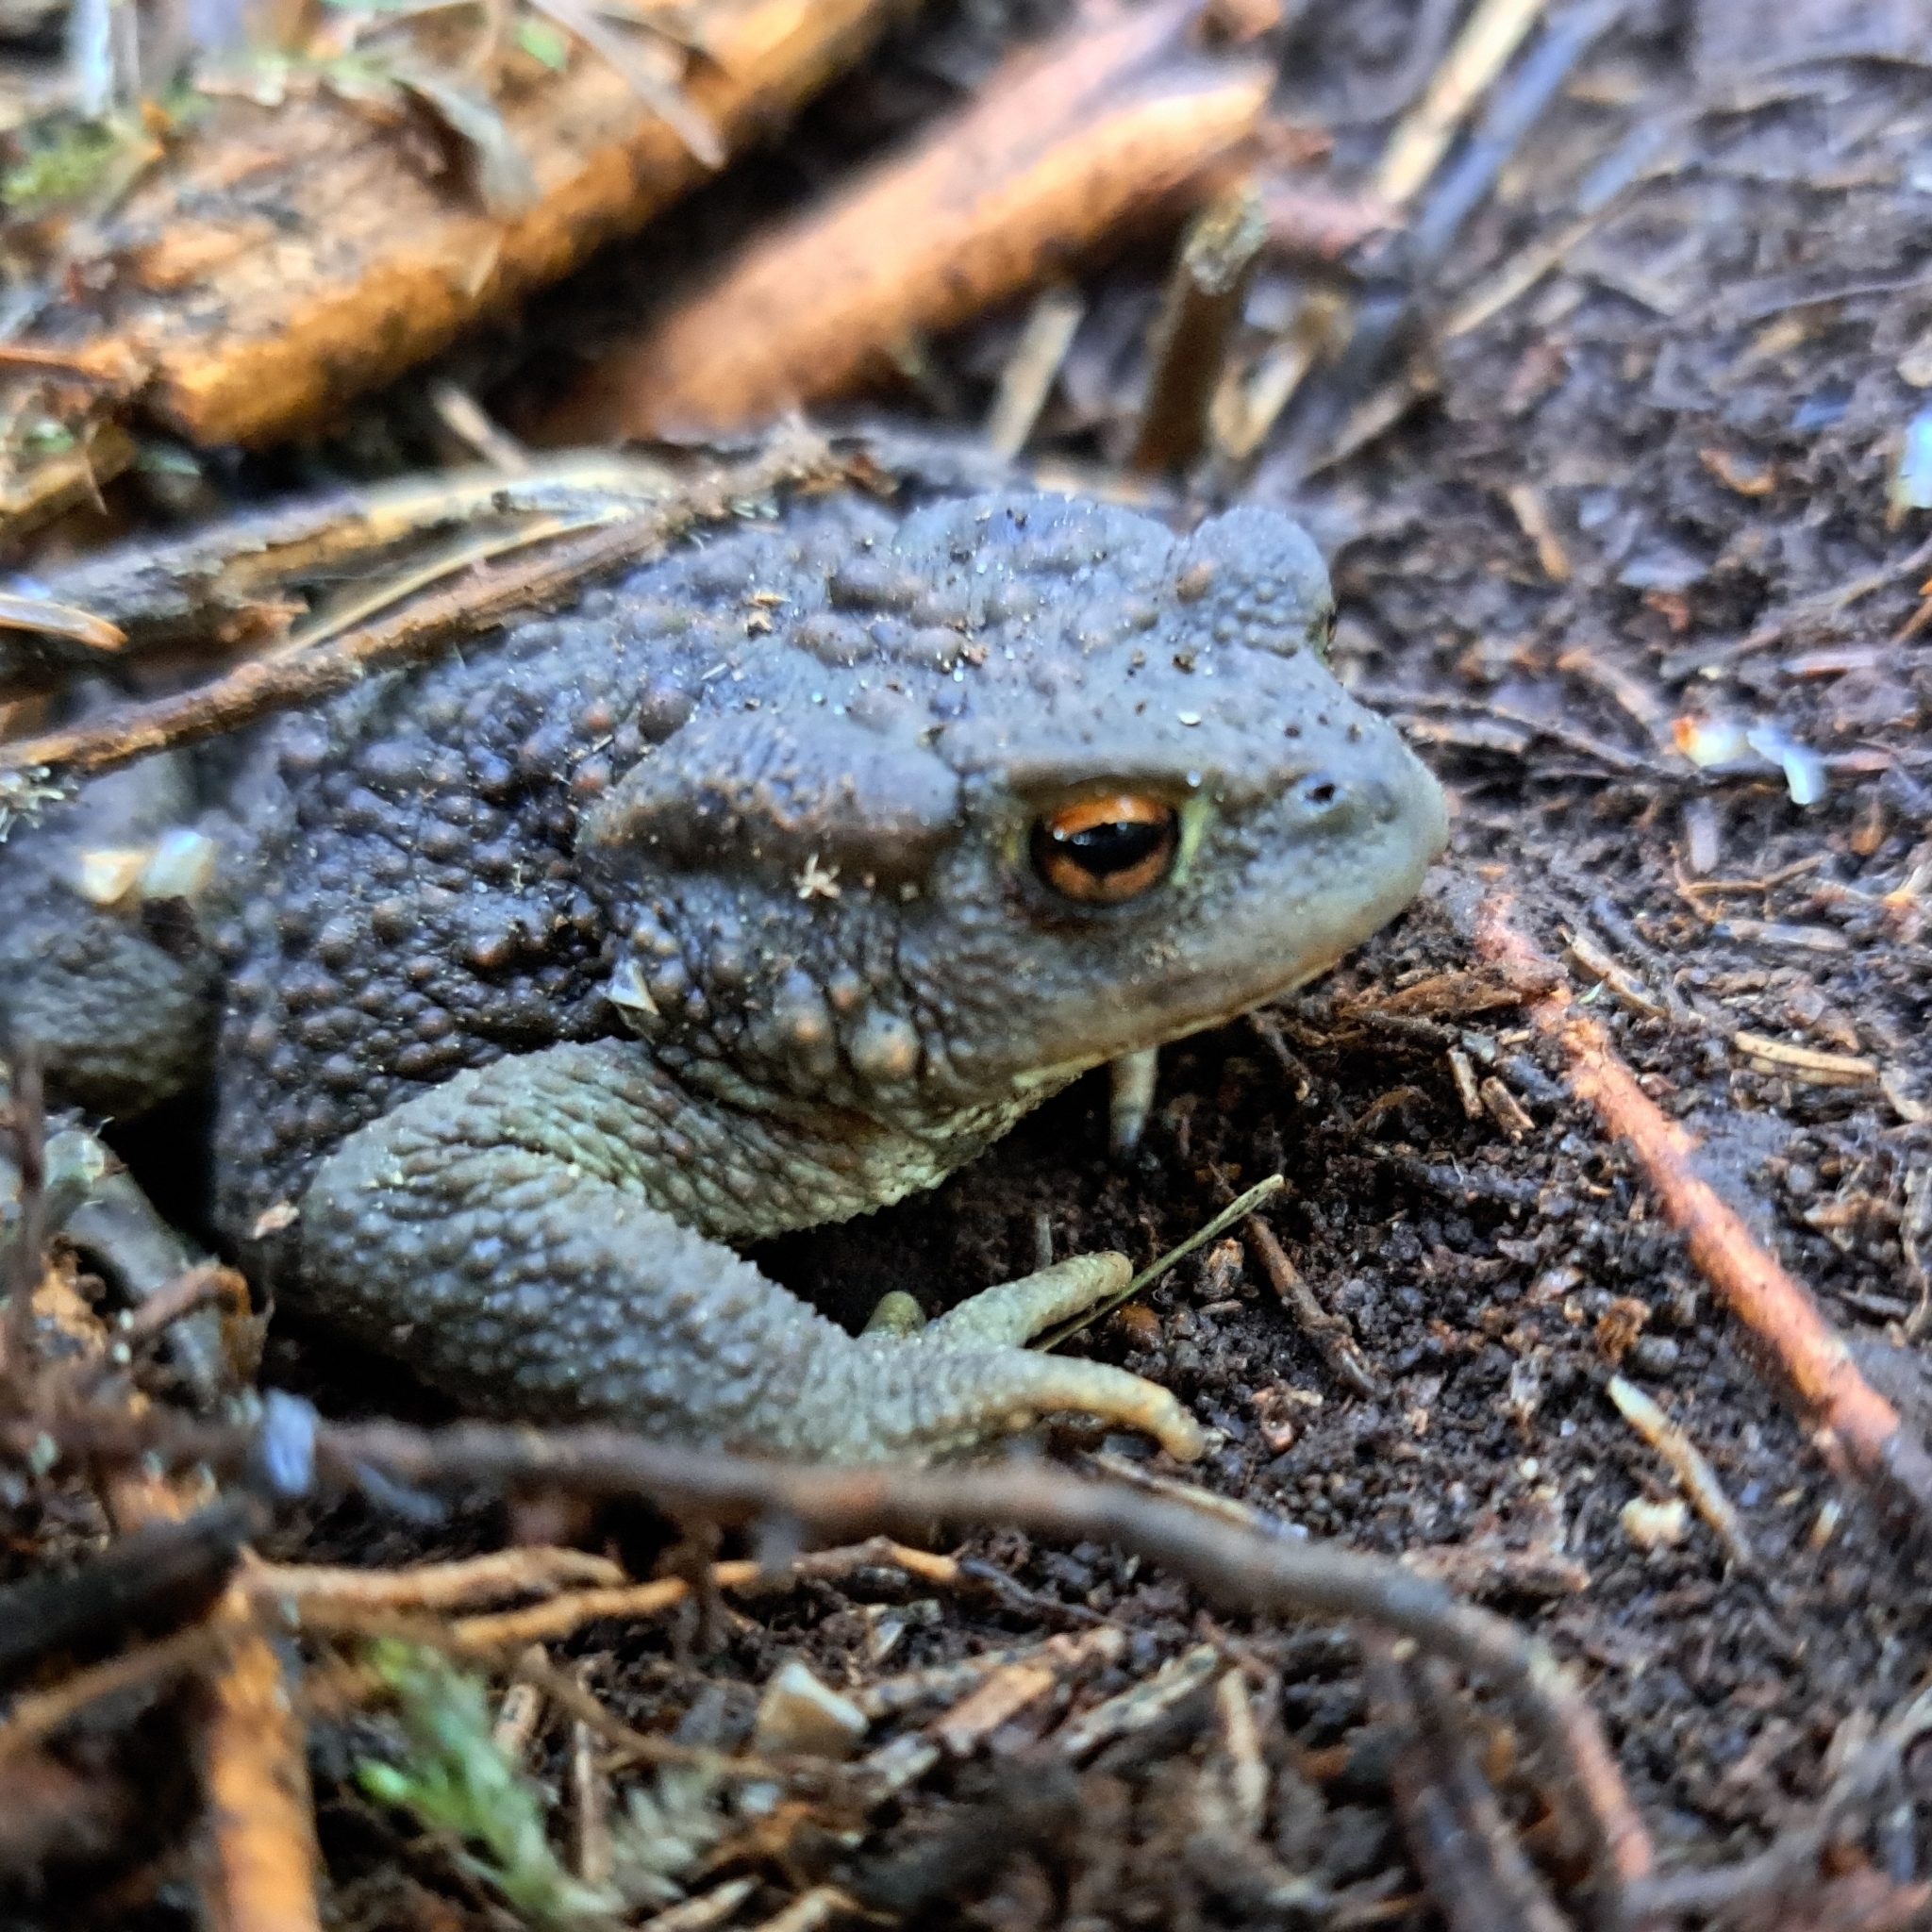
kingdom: Animalia
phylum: Chordata
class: Amphibia
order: Anura
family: Bufonidae
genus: Bufo
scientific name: Bufo bufo
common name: Common toad
